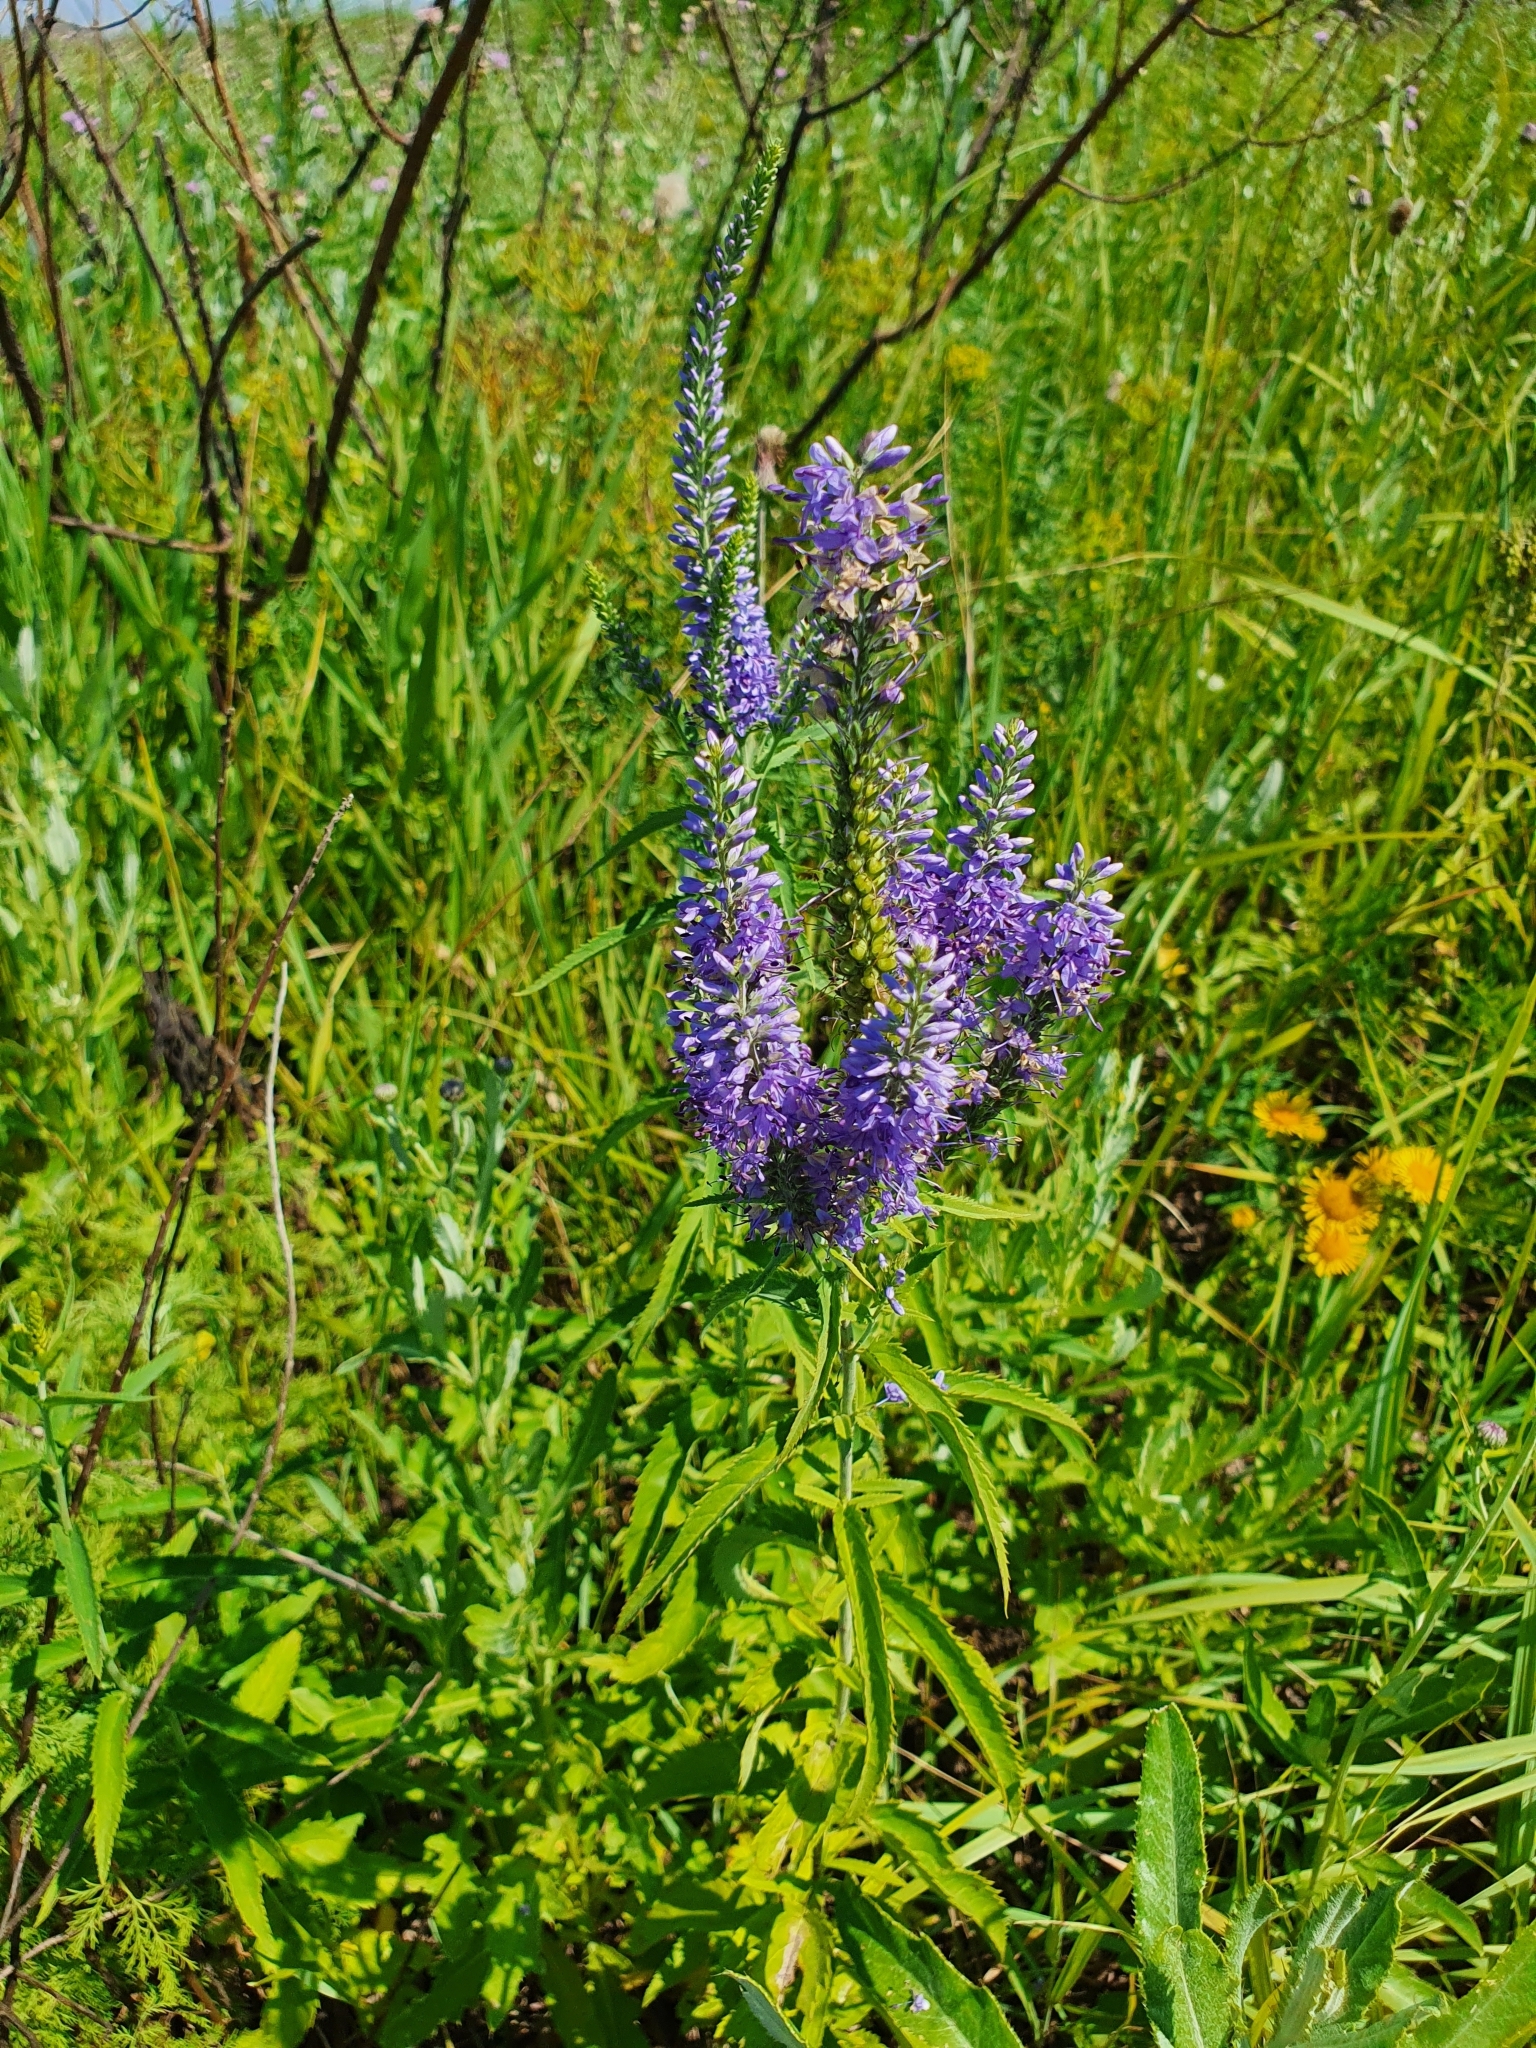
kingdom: Plantae
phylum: Tracheophyta
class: Magnoliopsida
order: Lamiales
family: Plantaginaceae
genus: Veronica
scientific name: Veronica longifolia
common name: Garden speedwell
